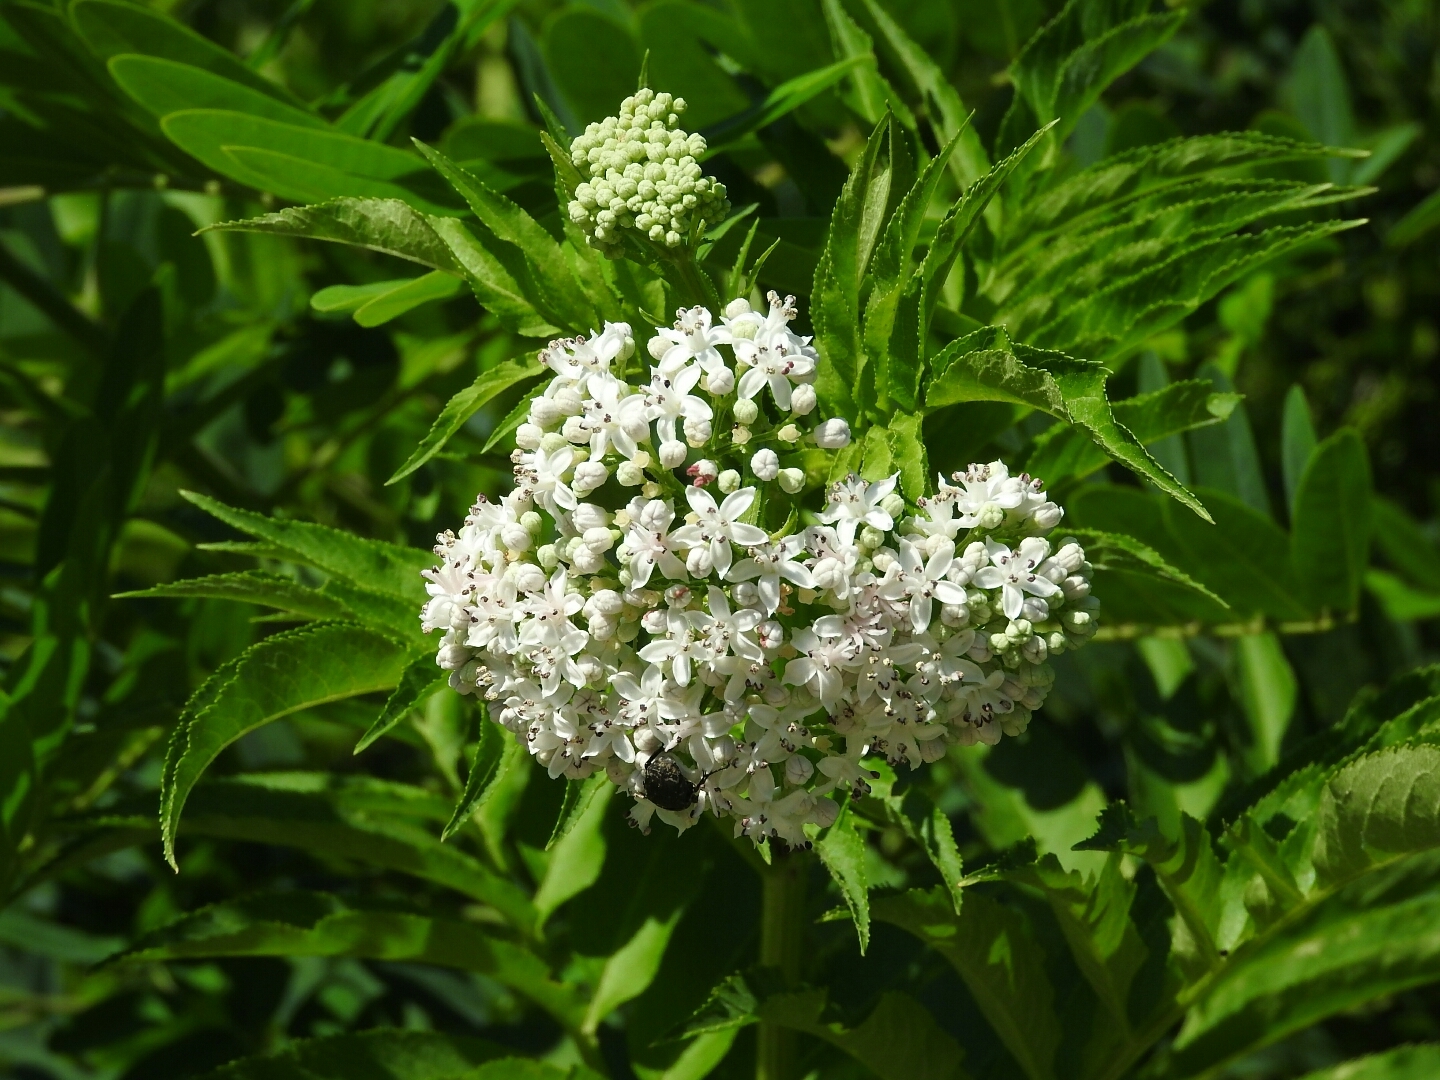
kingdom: Plantae
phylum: Tracheophyta
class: Magnoliopsida
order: Dipsacales
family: Viburnaceae
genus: Sambucus
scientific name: Sambucus ebulus
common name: Dwarf elder
